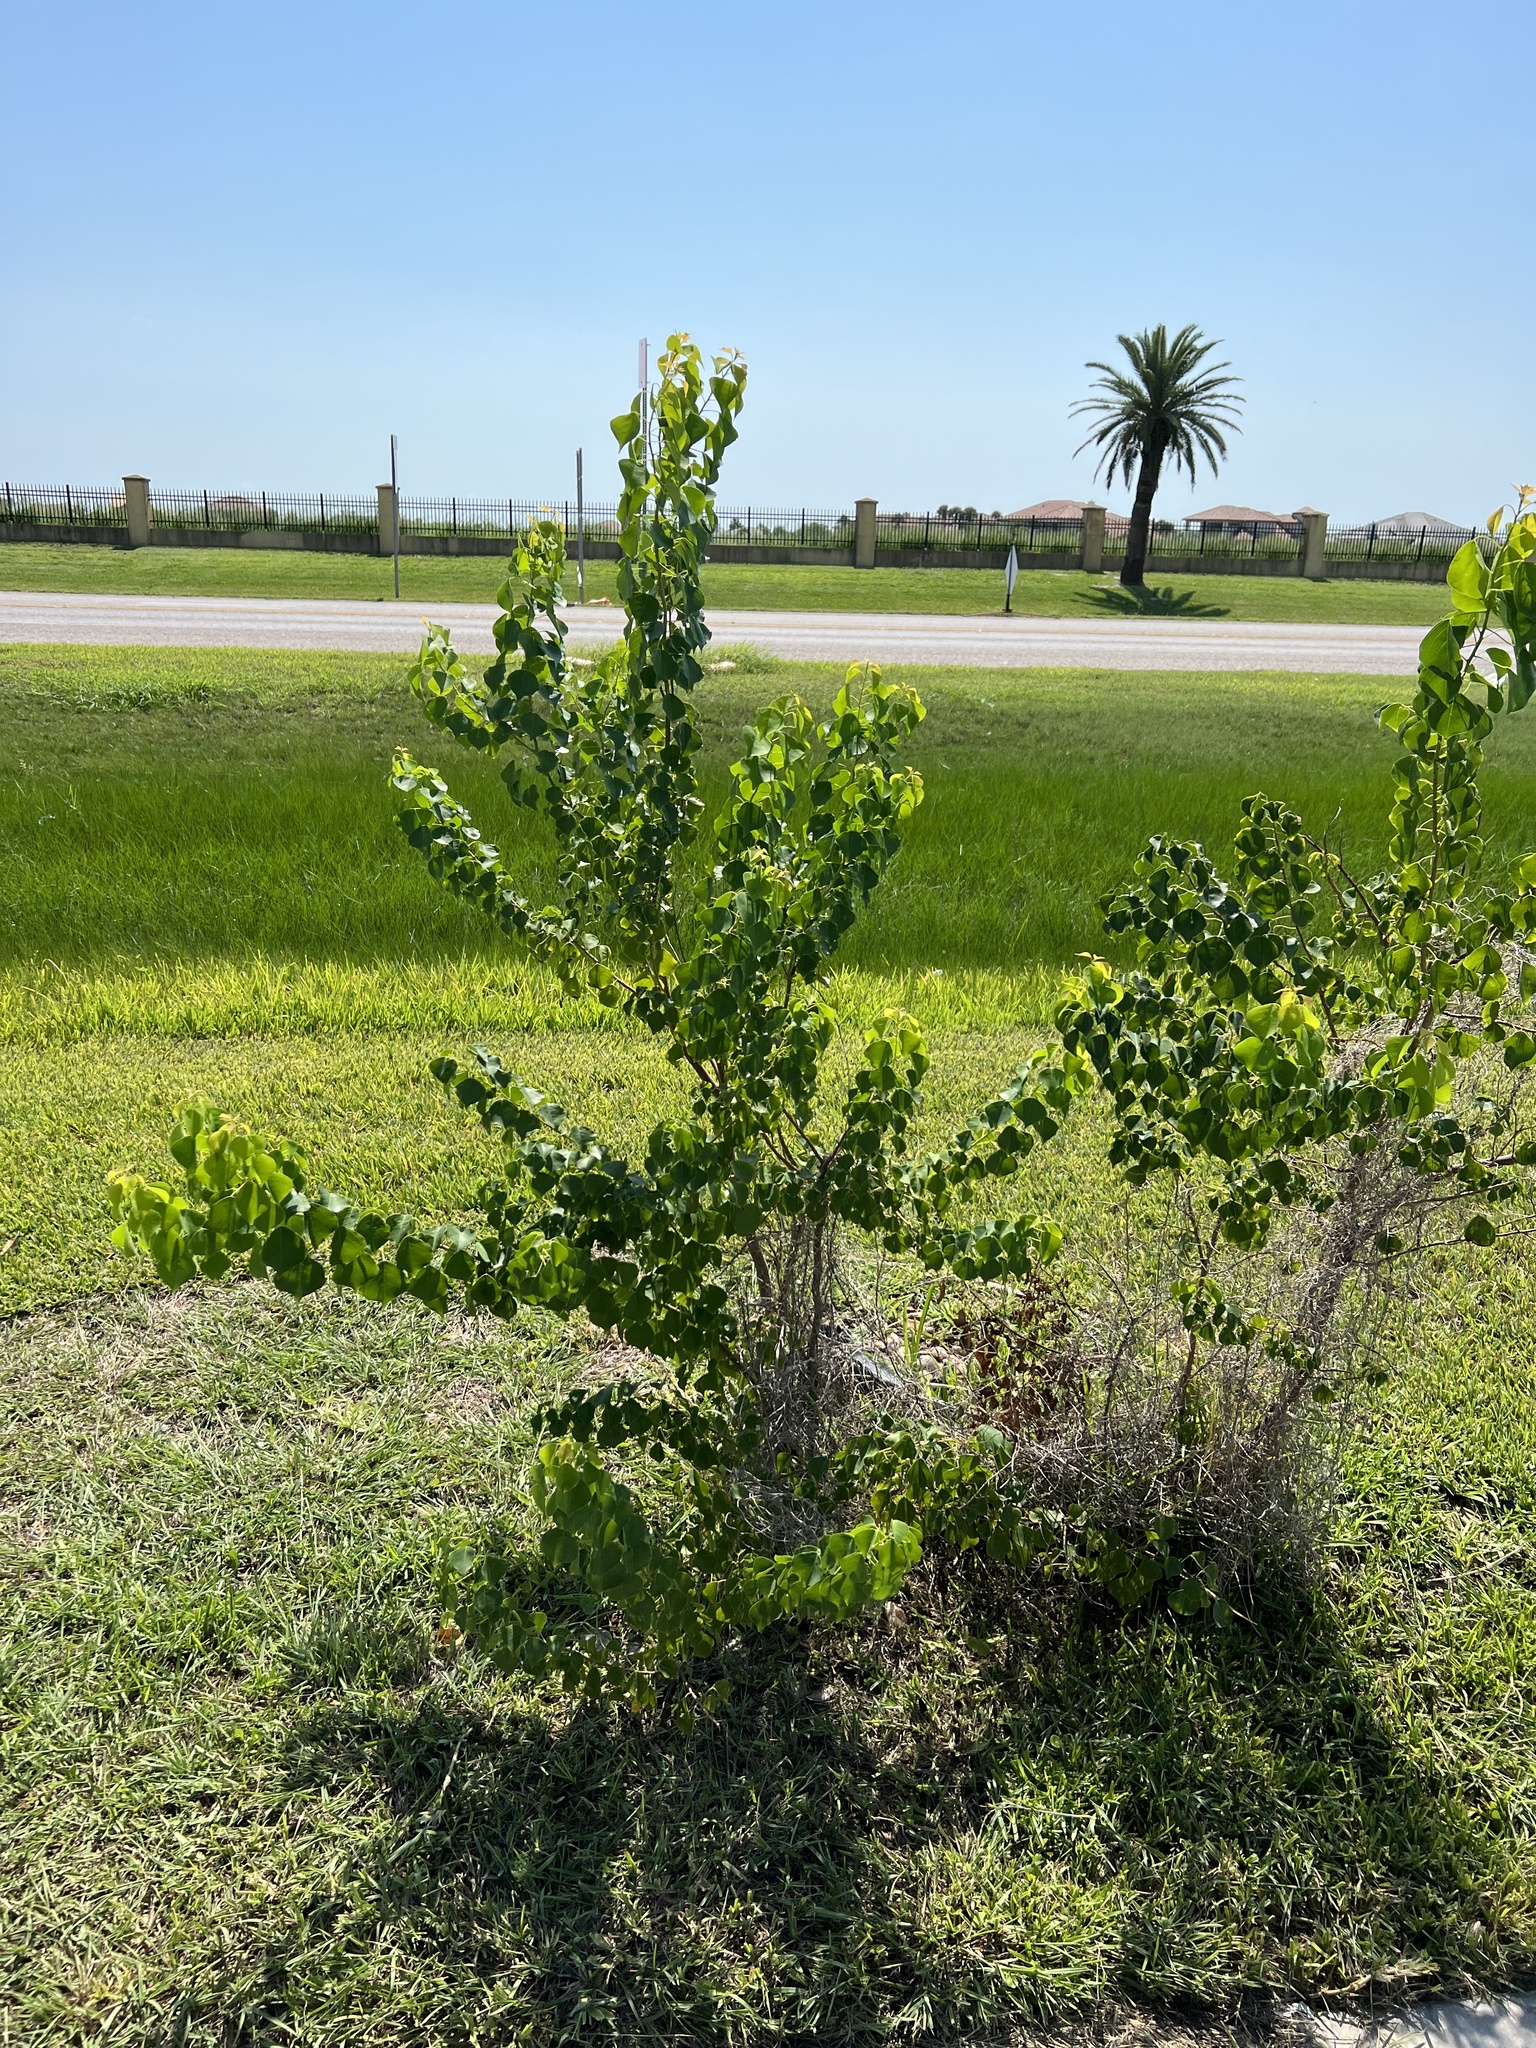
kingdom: Plantae
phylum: Tracheophyta
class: Magnoliopsida
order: Malpighiales
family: Euphorbiaceae
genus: Triadica
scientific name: Triadica sebifera
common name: Chinese tallow
